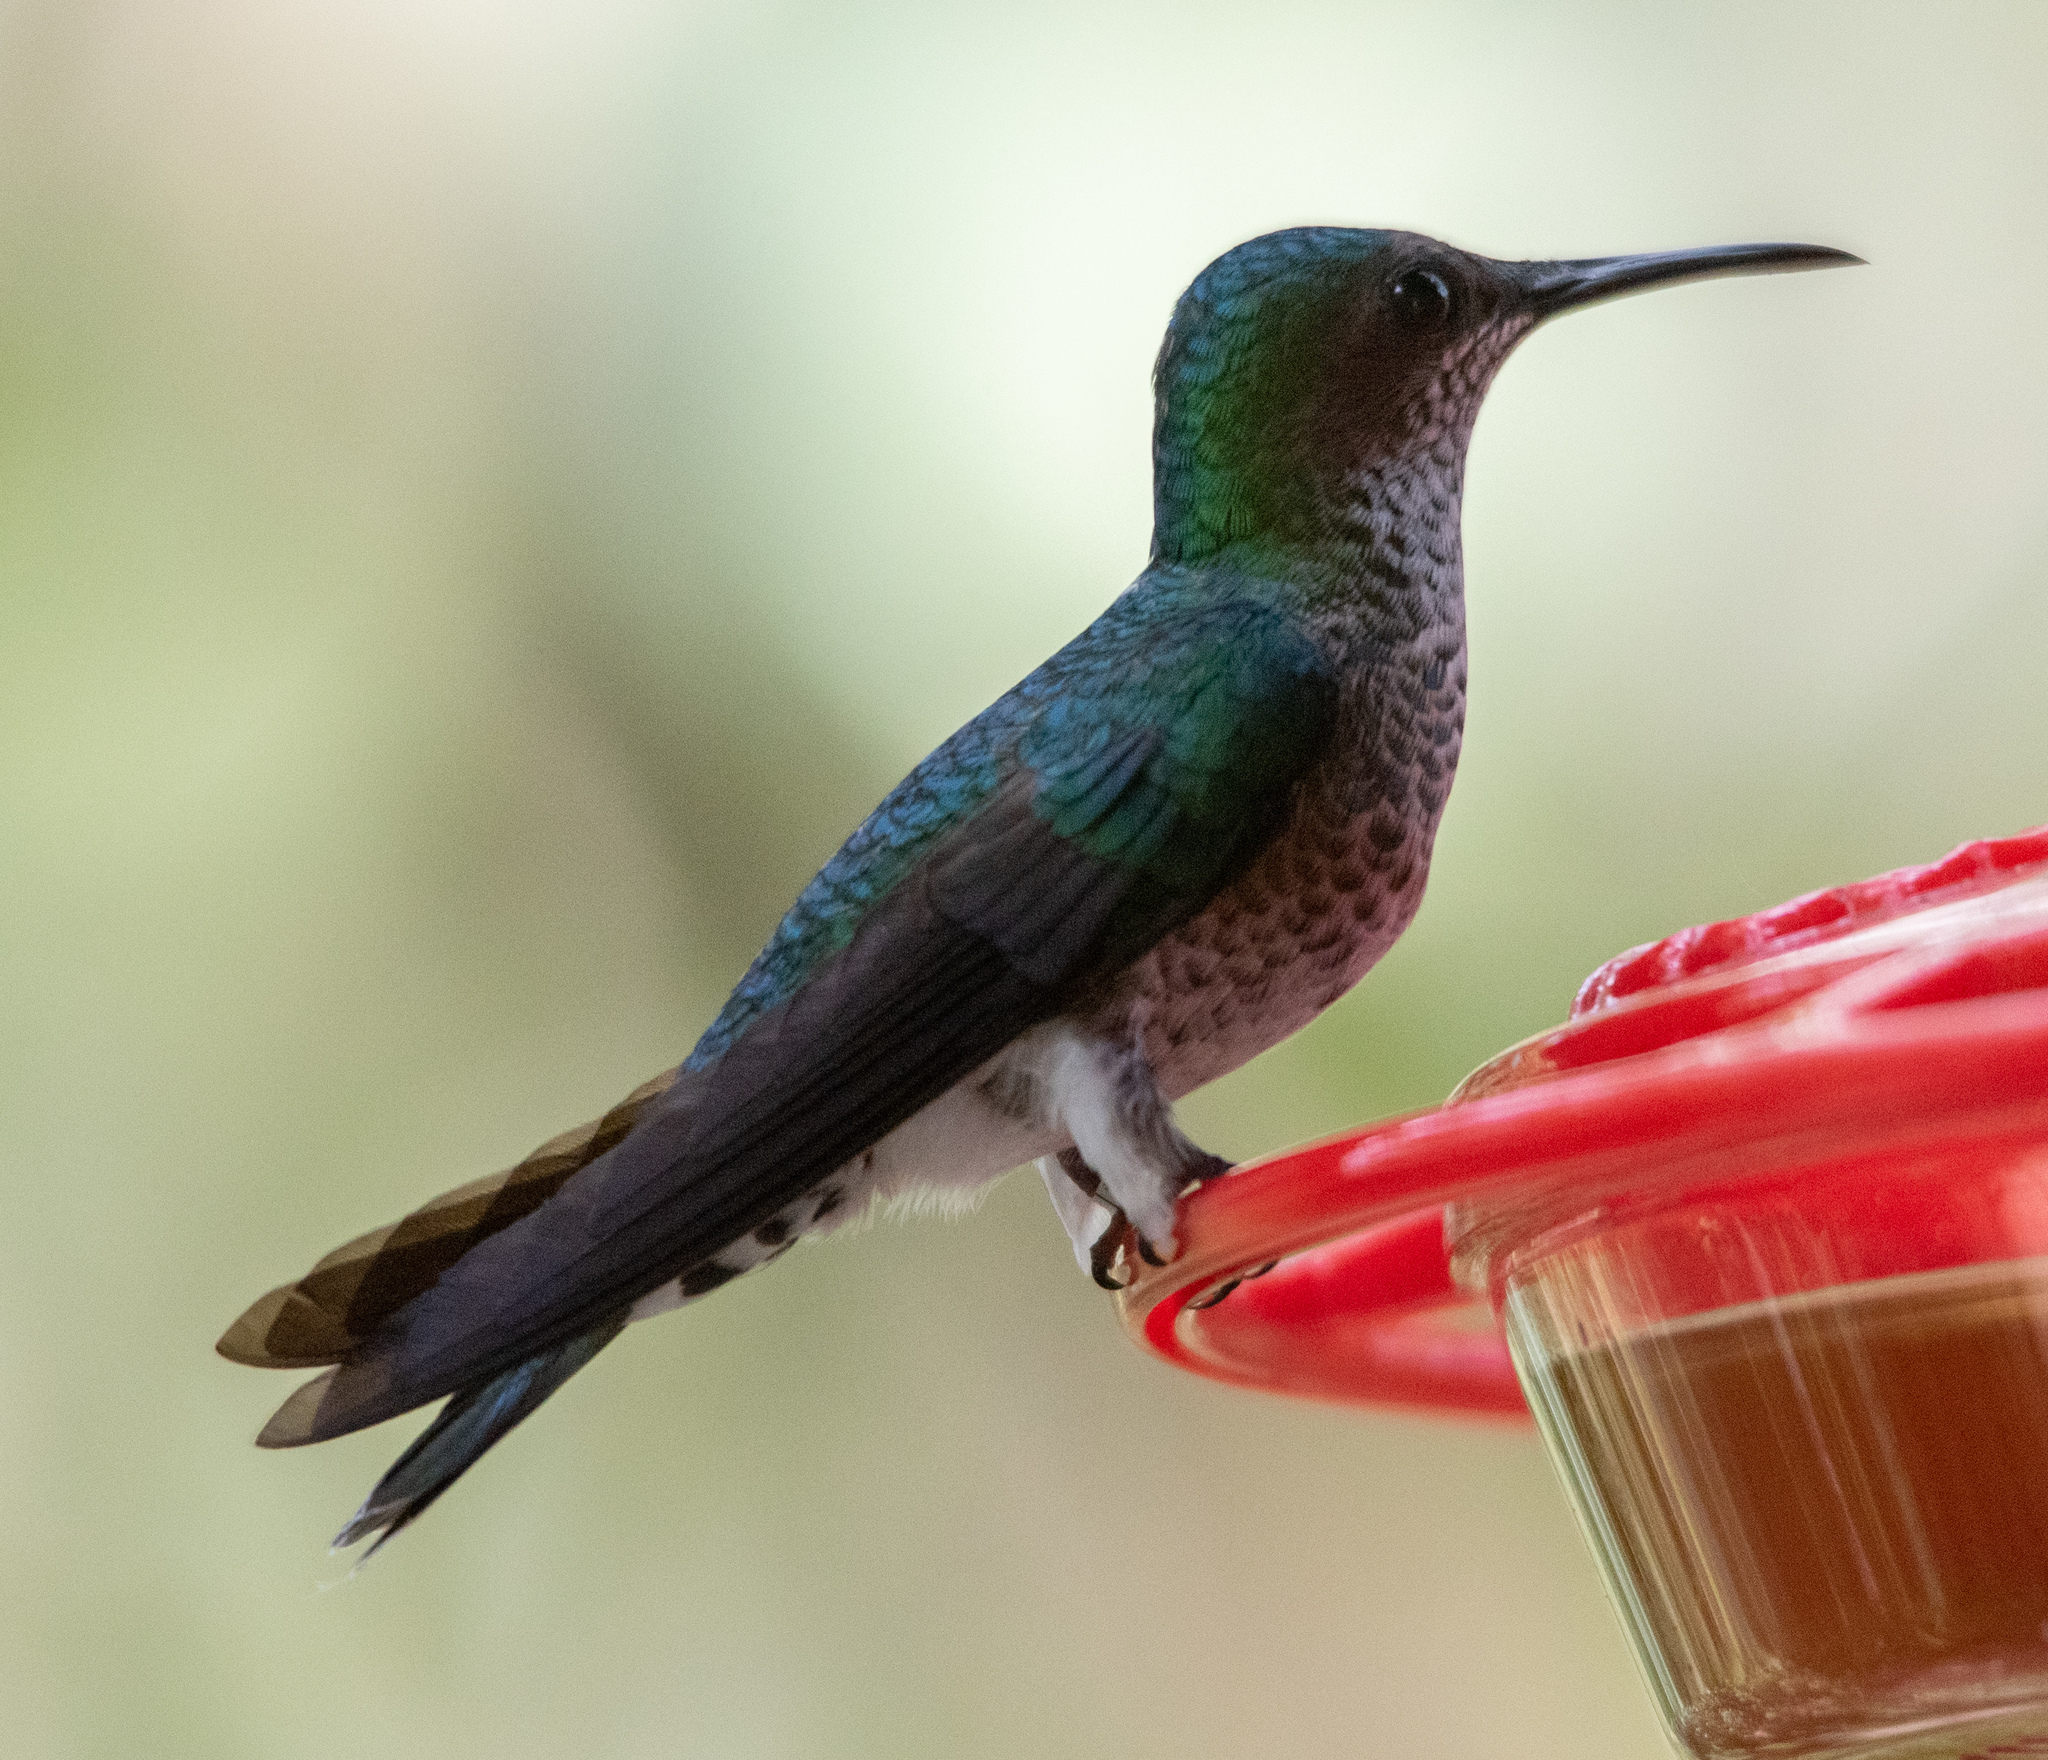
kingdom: Animalia
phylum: Chordata
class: Aves
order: Apodiformes
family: Trochilidae
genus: Florisuga
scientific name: Florisuga mellivora
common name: White-necked jacobin
